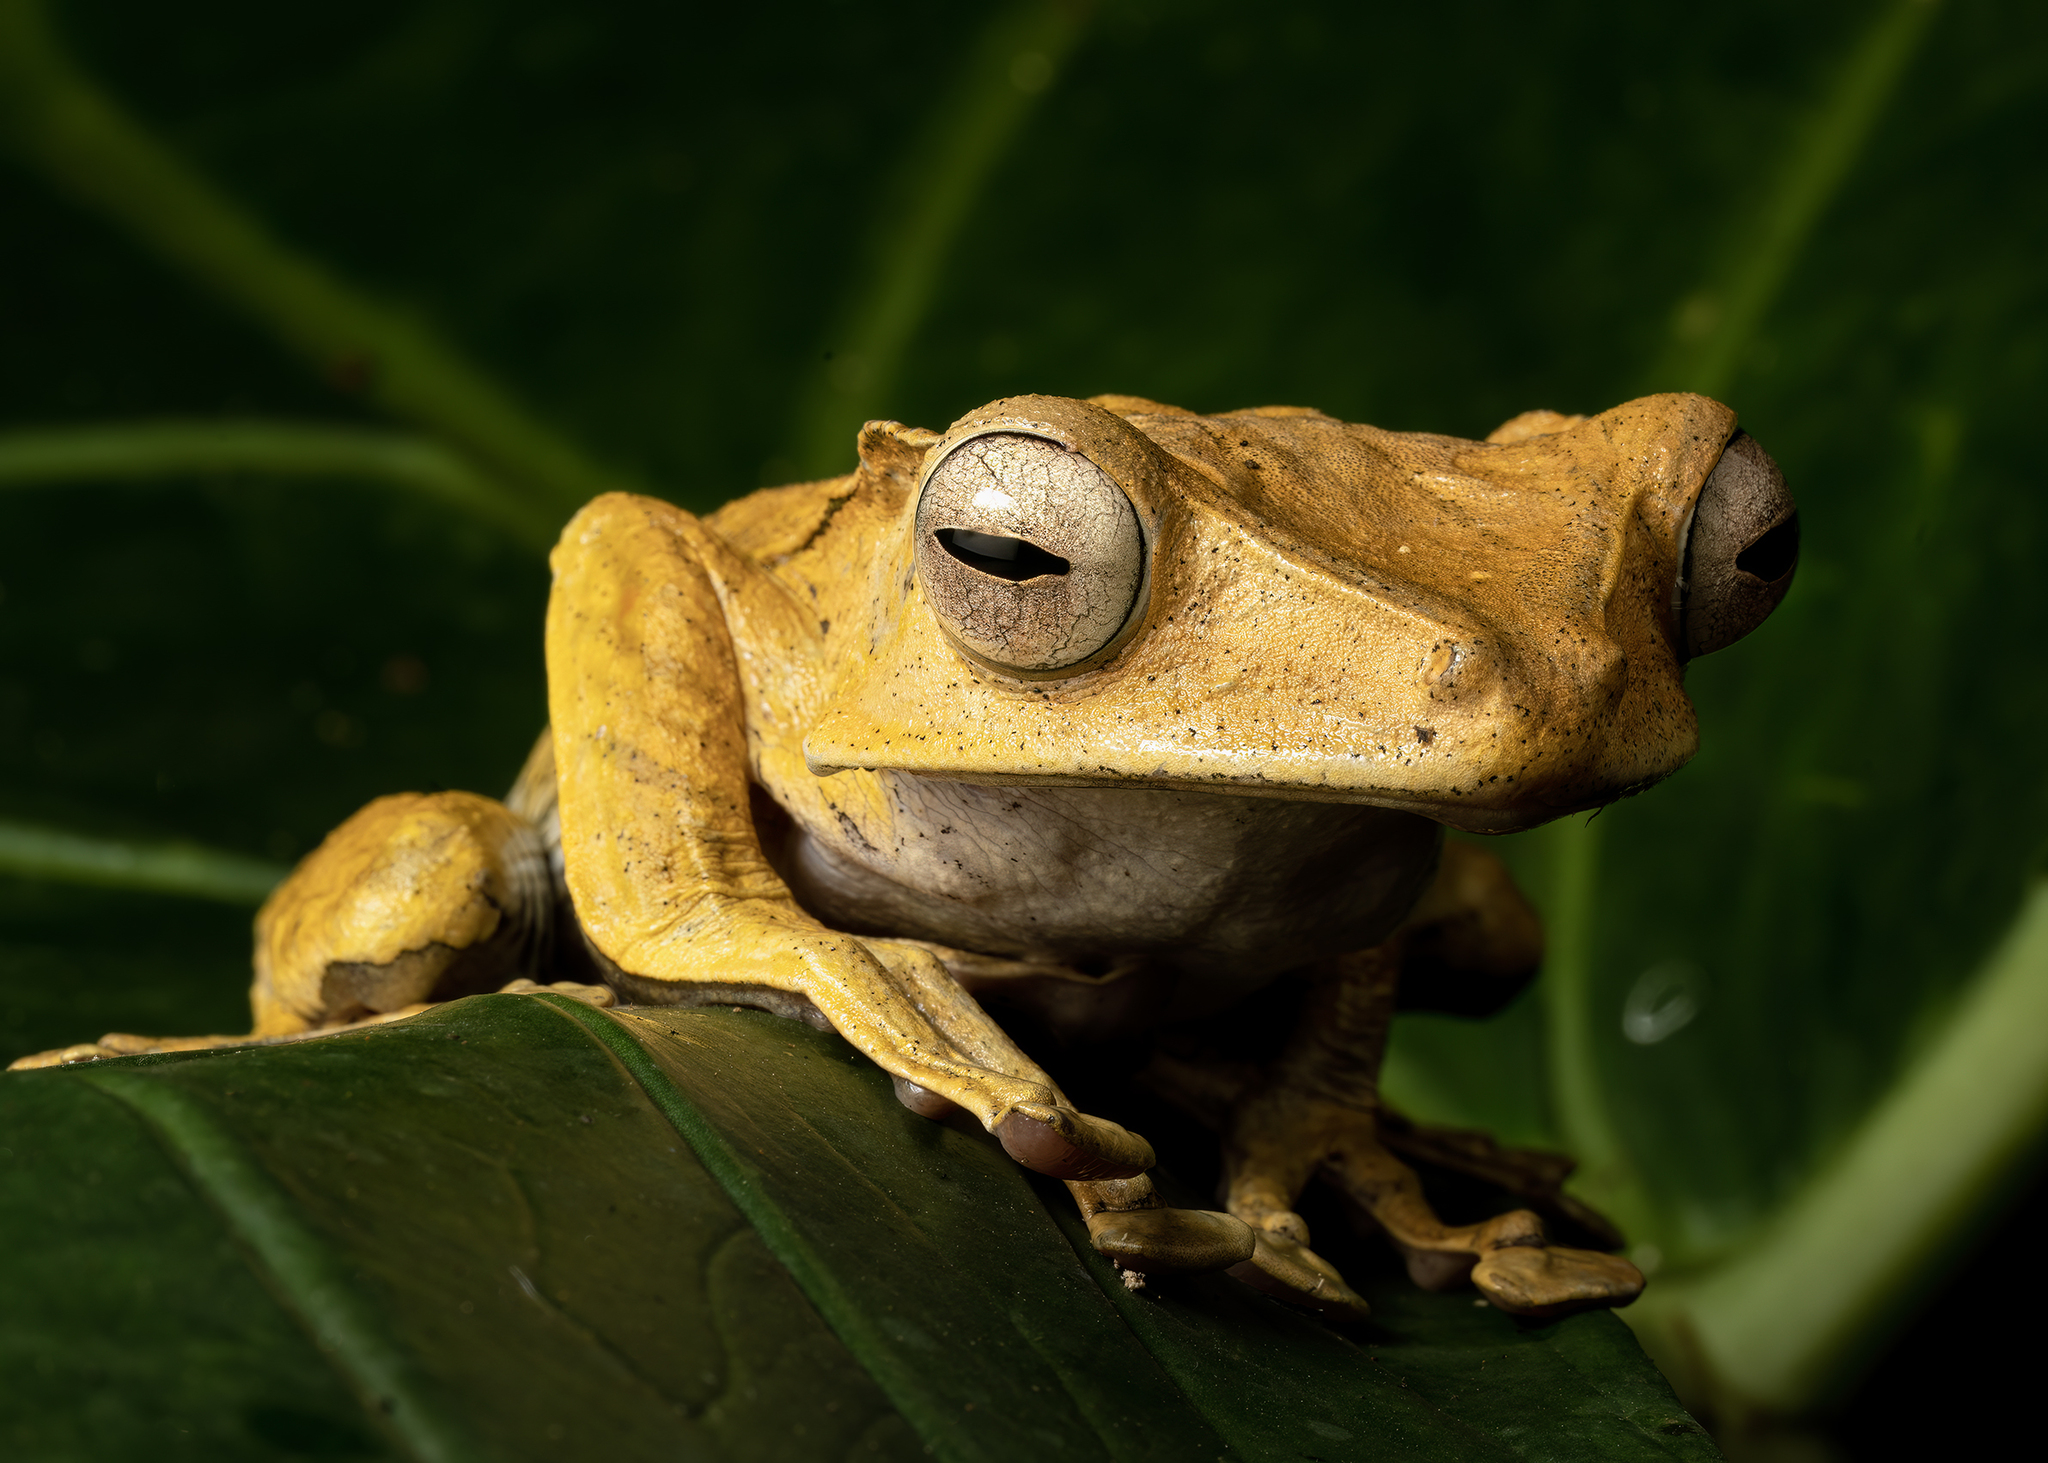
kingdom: Animalia
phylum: Chordata
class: Amphibia
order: Anura
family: Rhacophoridae
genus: Polypedates
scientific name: Polypedates otilophus
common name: File-eared tree frog
